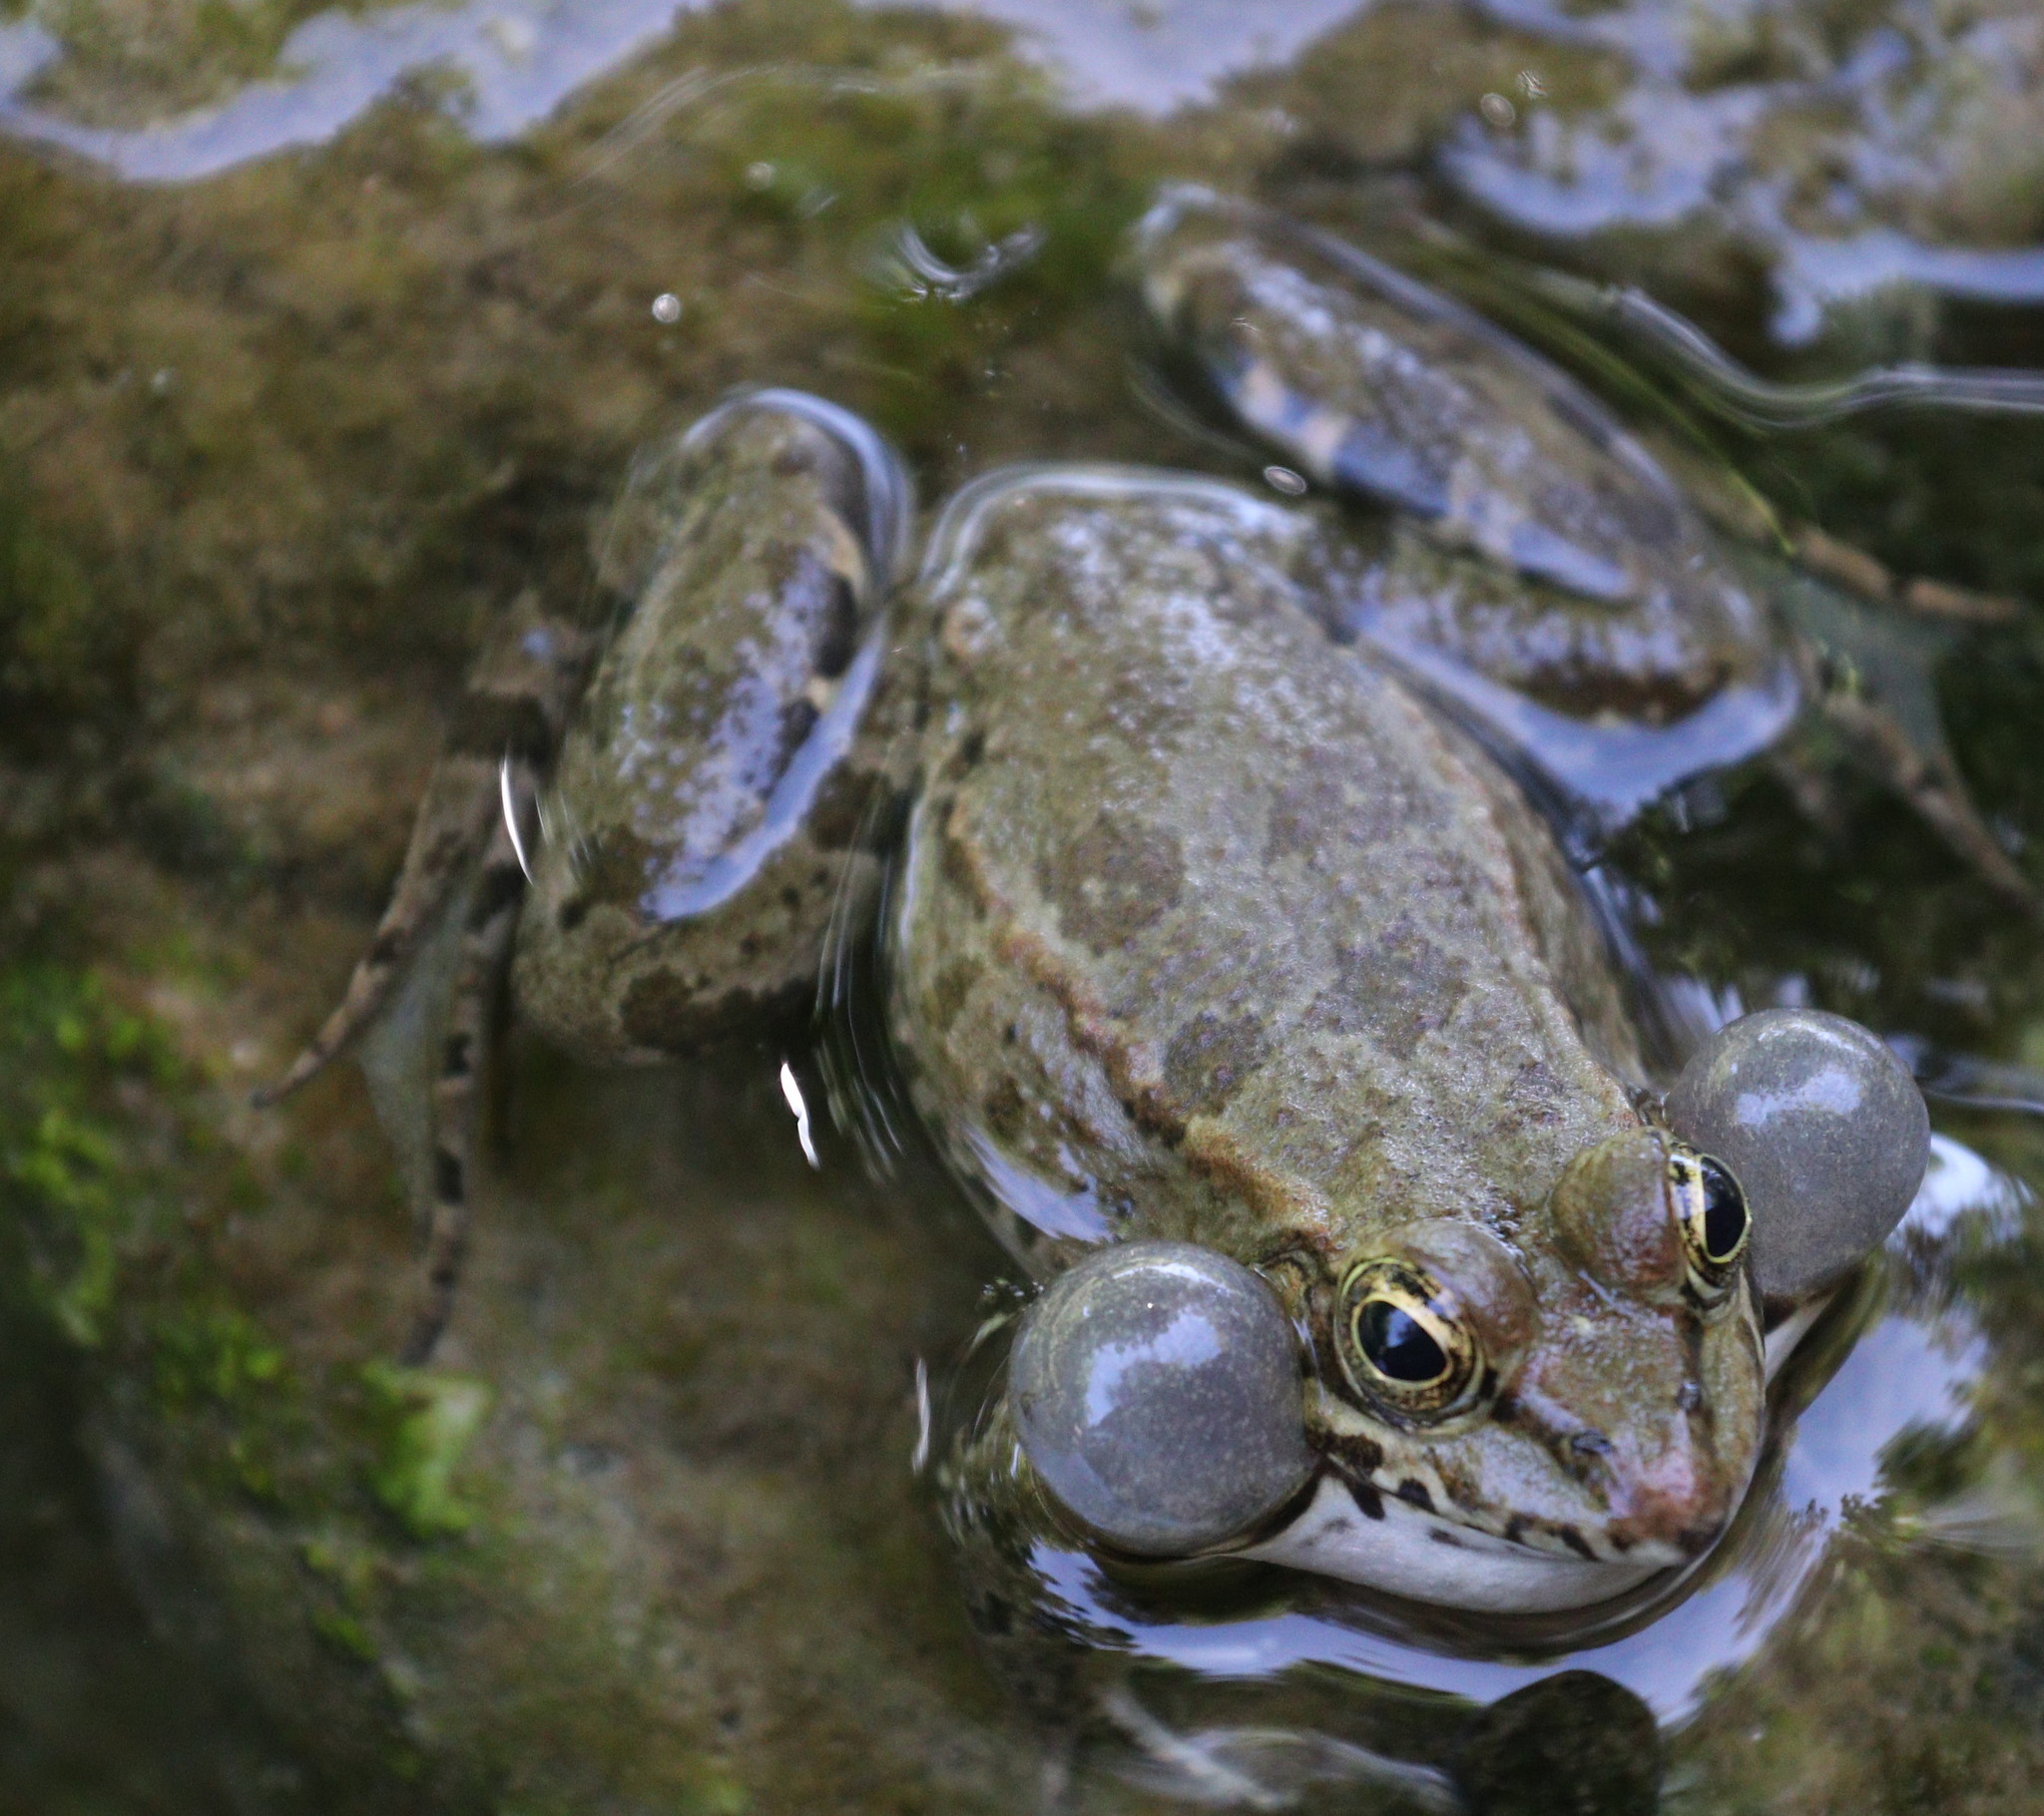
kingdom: Animalia
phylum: Chordata
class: Amphibia
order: Anura
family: Ranidae
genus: Pelophylax
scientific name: Pelophylax ridibundus
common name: Marsh frog
